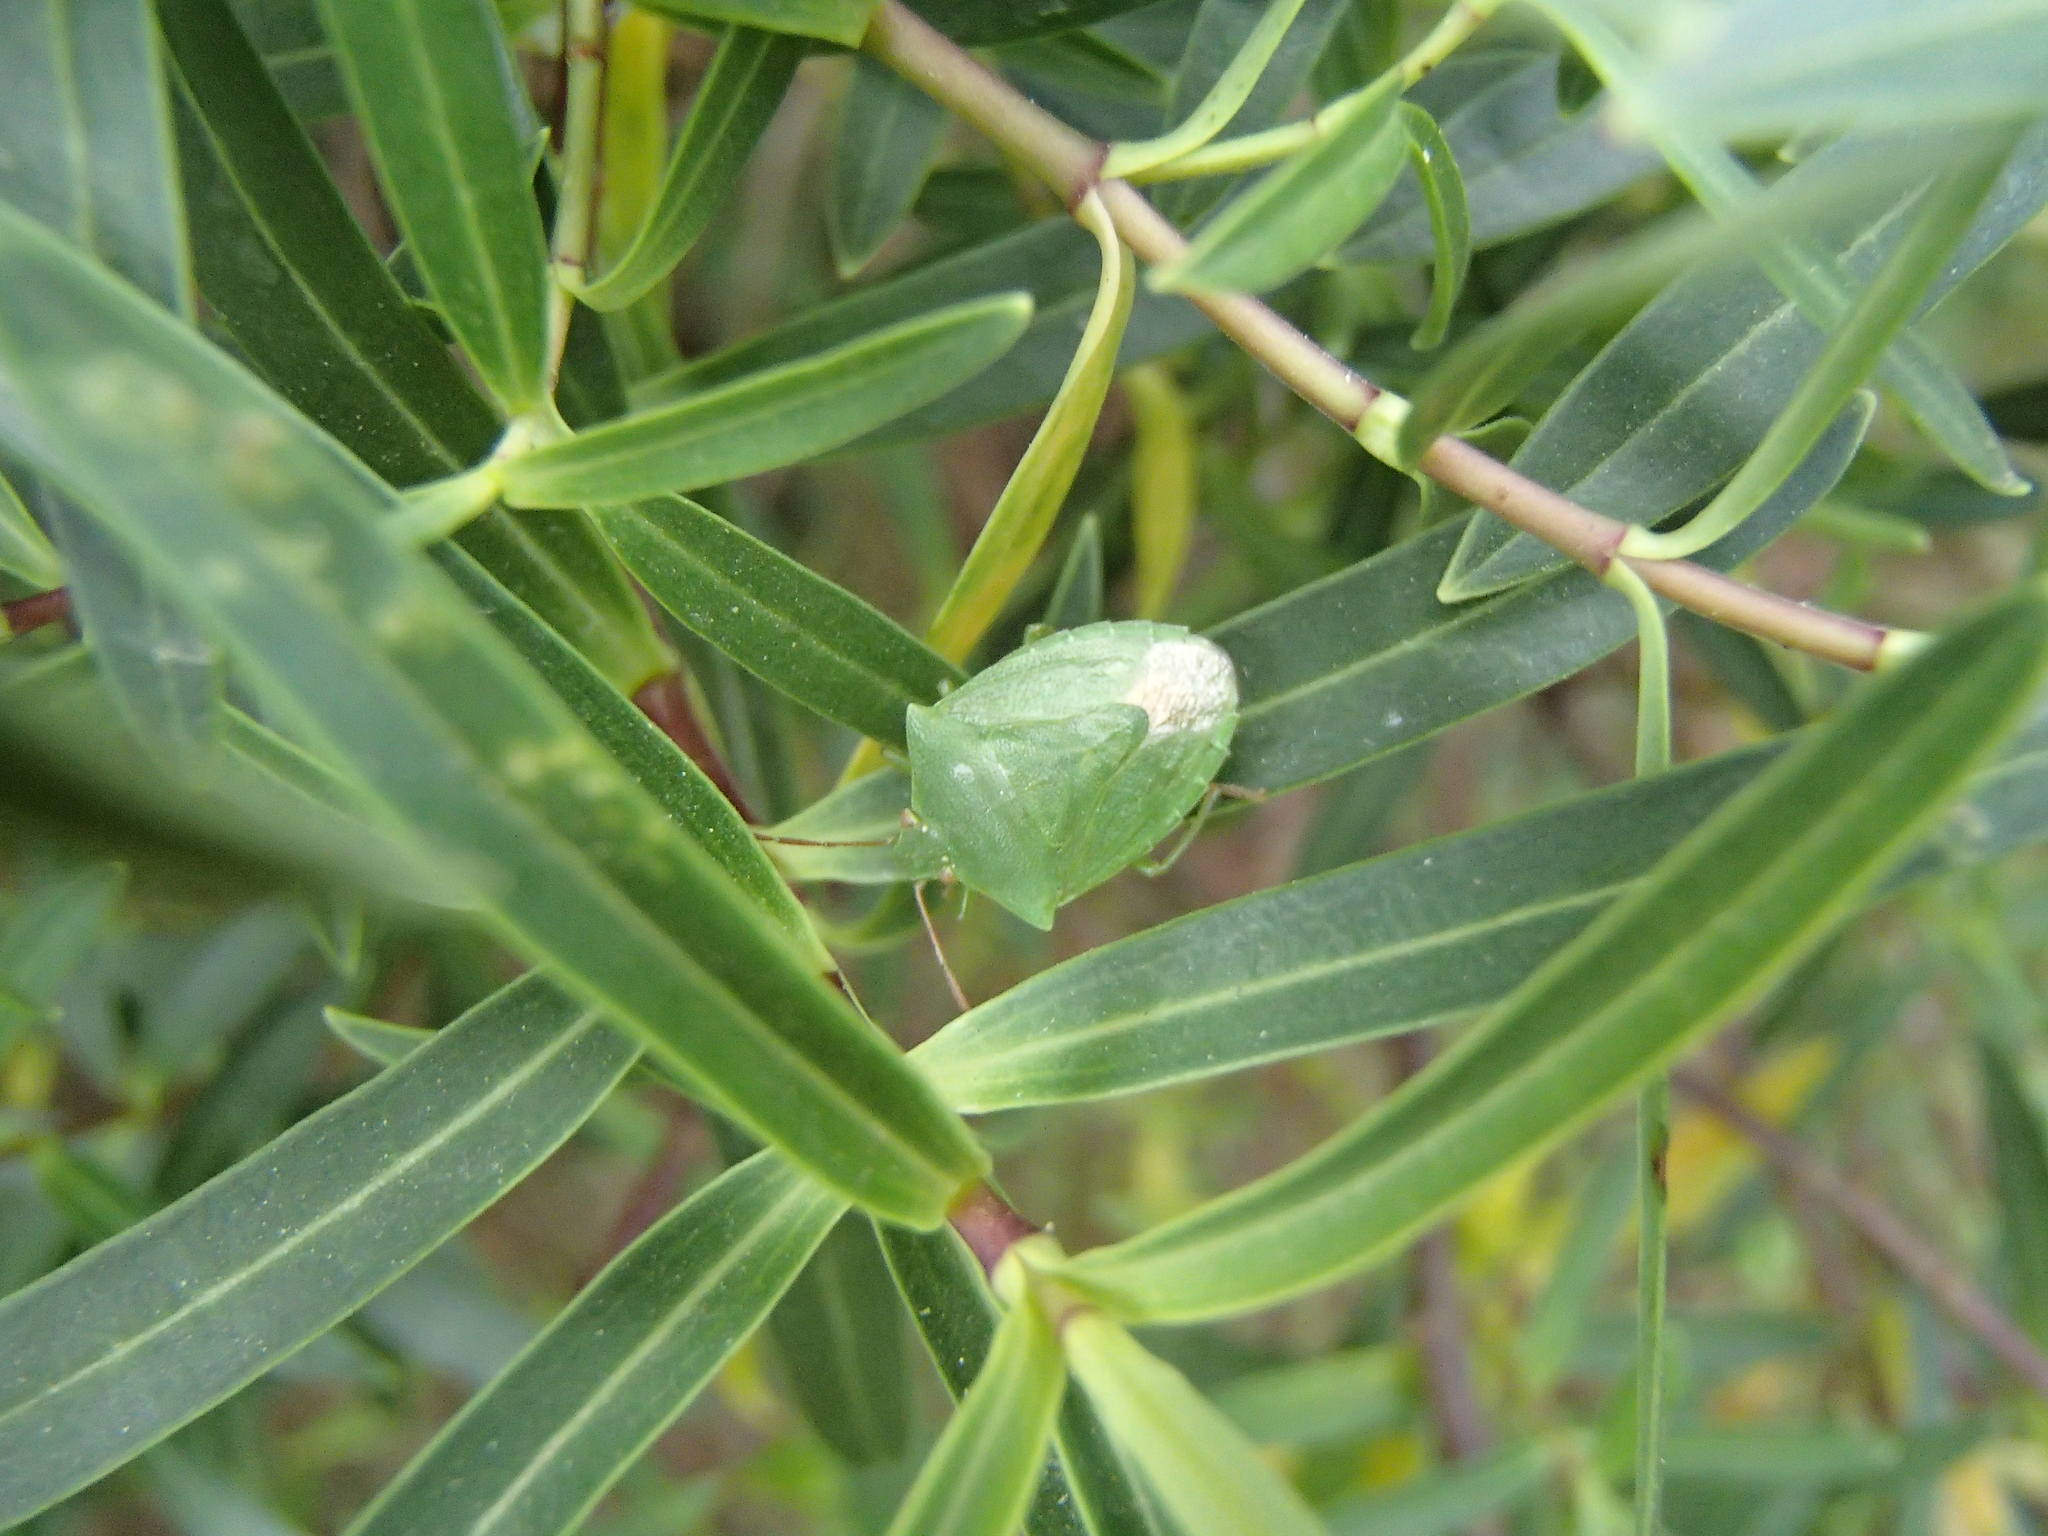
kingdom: Animalia
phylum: Arthropoda
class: Insecta
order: Hemiptera
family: Pentatomidae
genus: Cuspicona
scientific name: Cuspicona simplex
